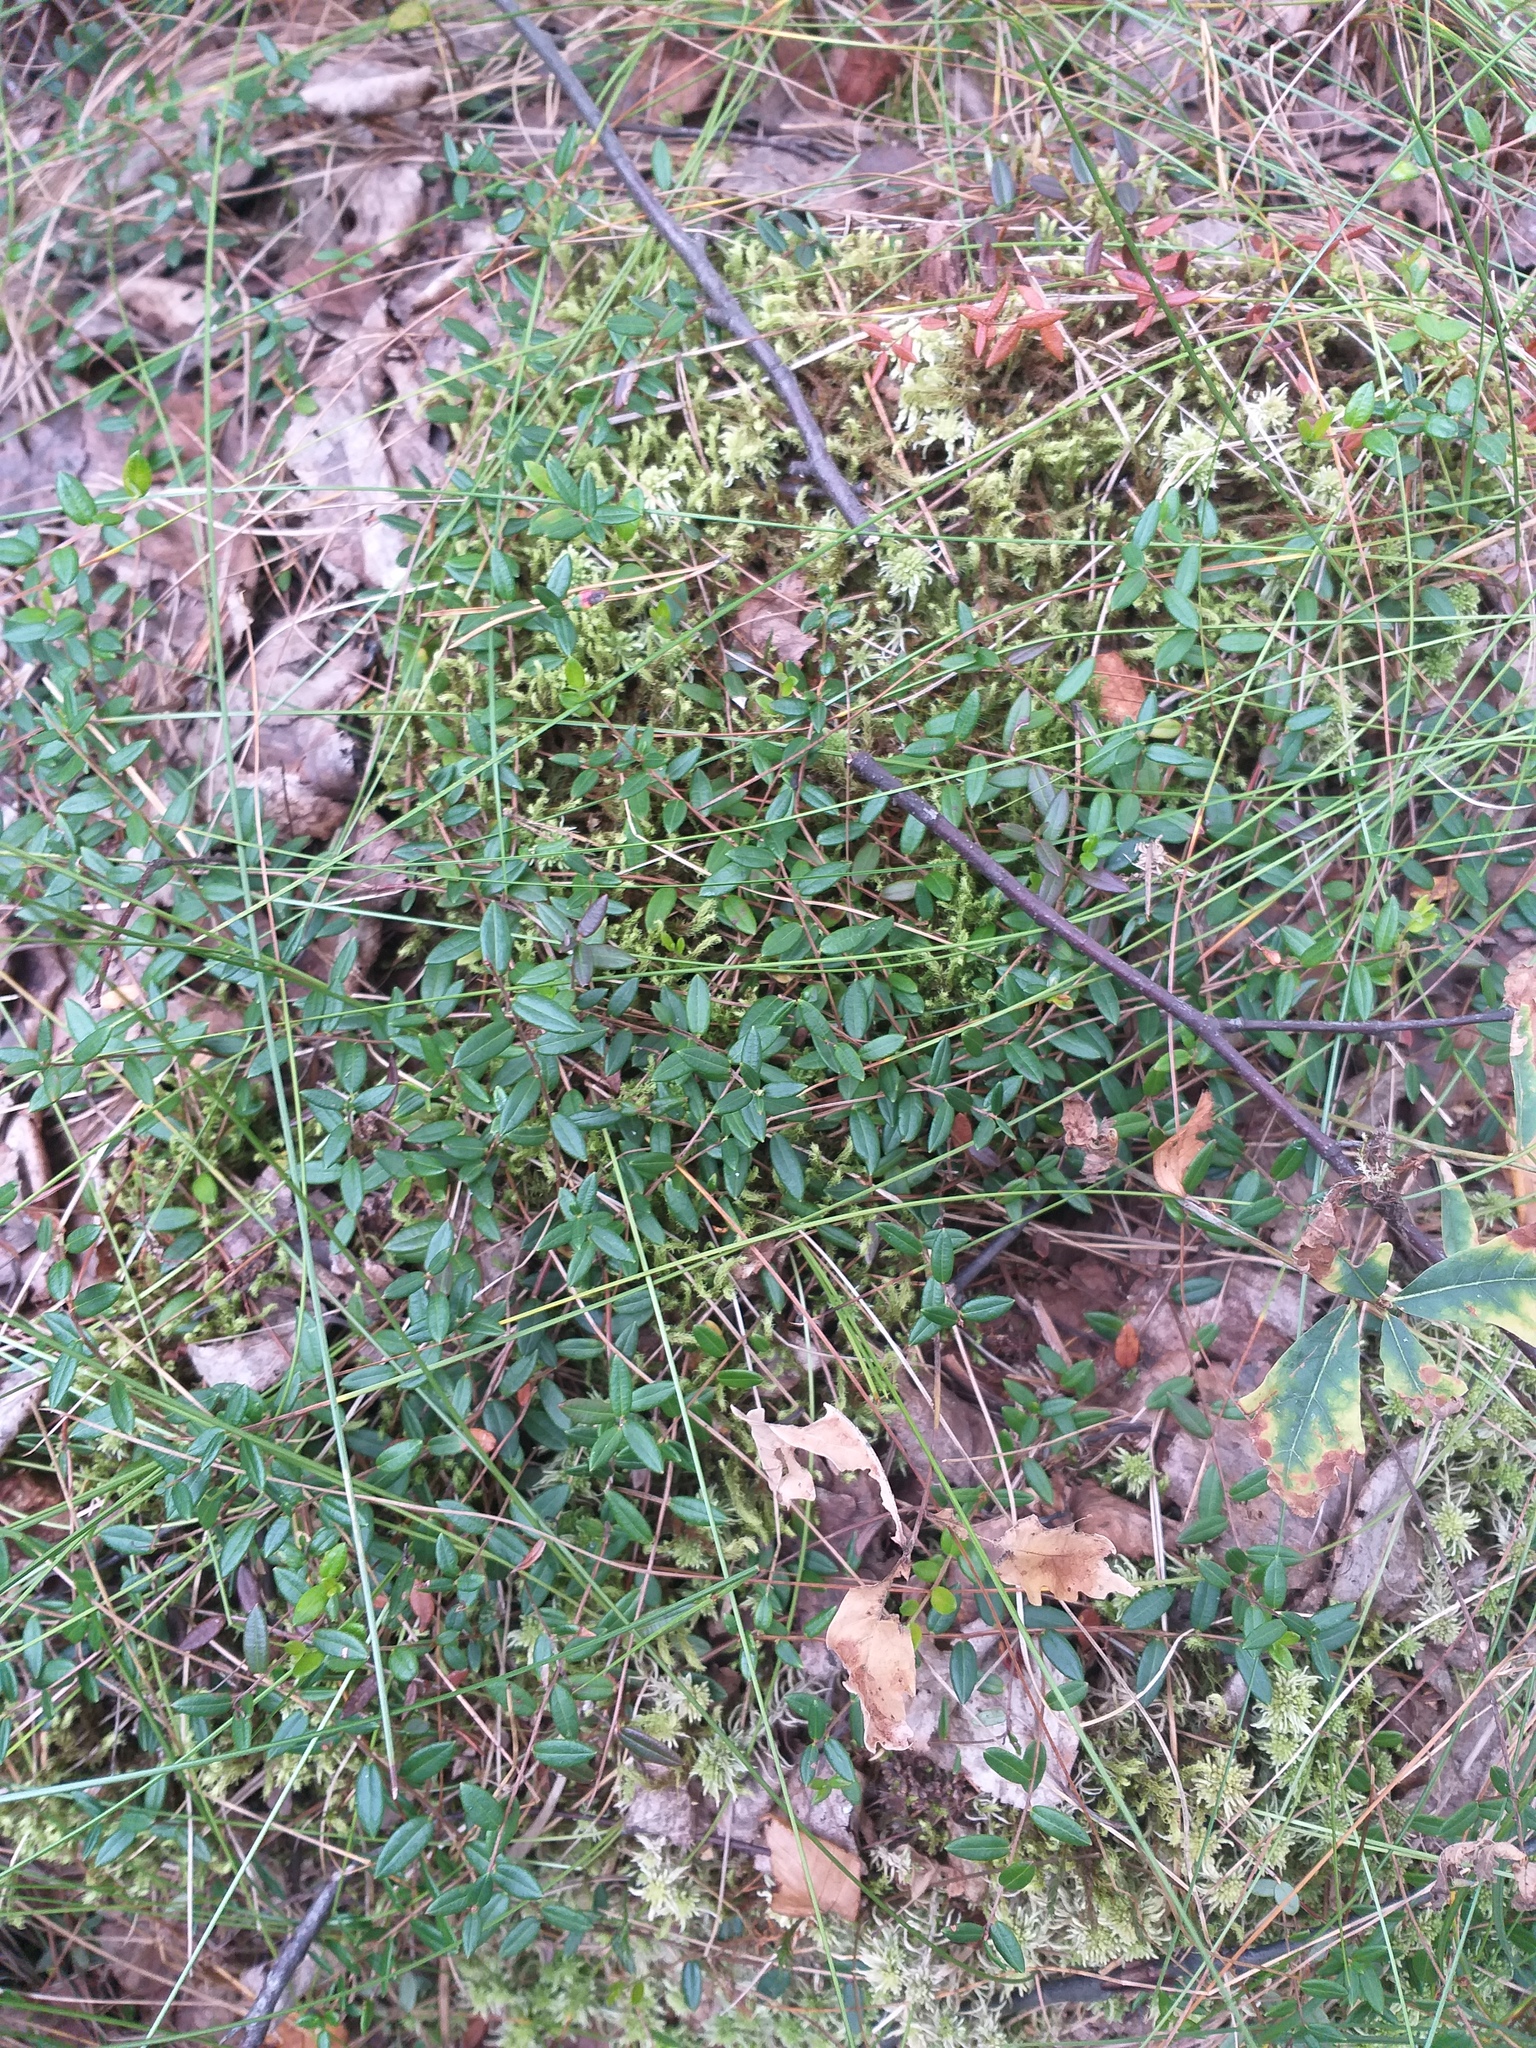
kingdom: Plantae
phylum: Tracheophyta
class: Magnoliopsida
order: Ericales
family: Ericaceae
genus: Vaccinium
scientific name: Vaccinium oxycoccos
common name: Cranberry
